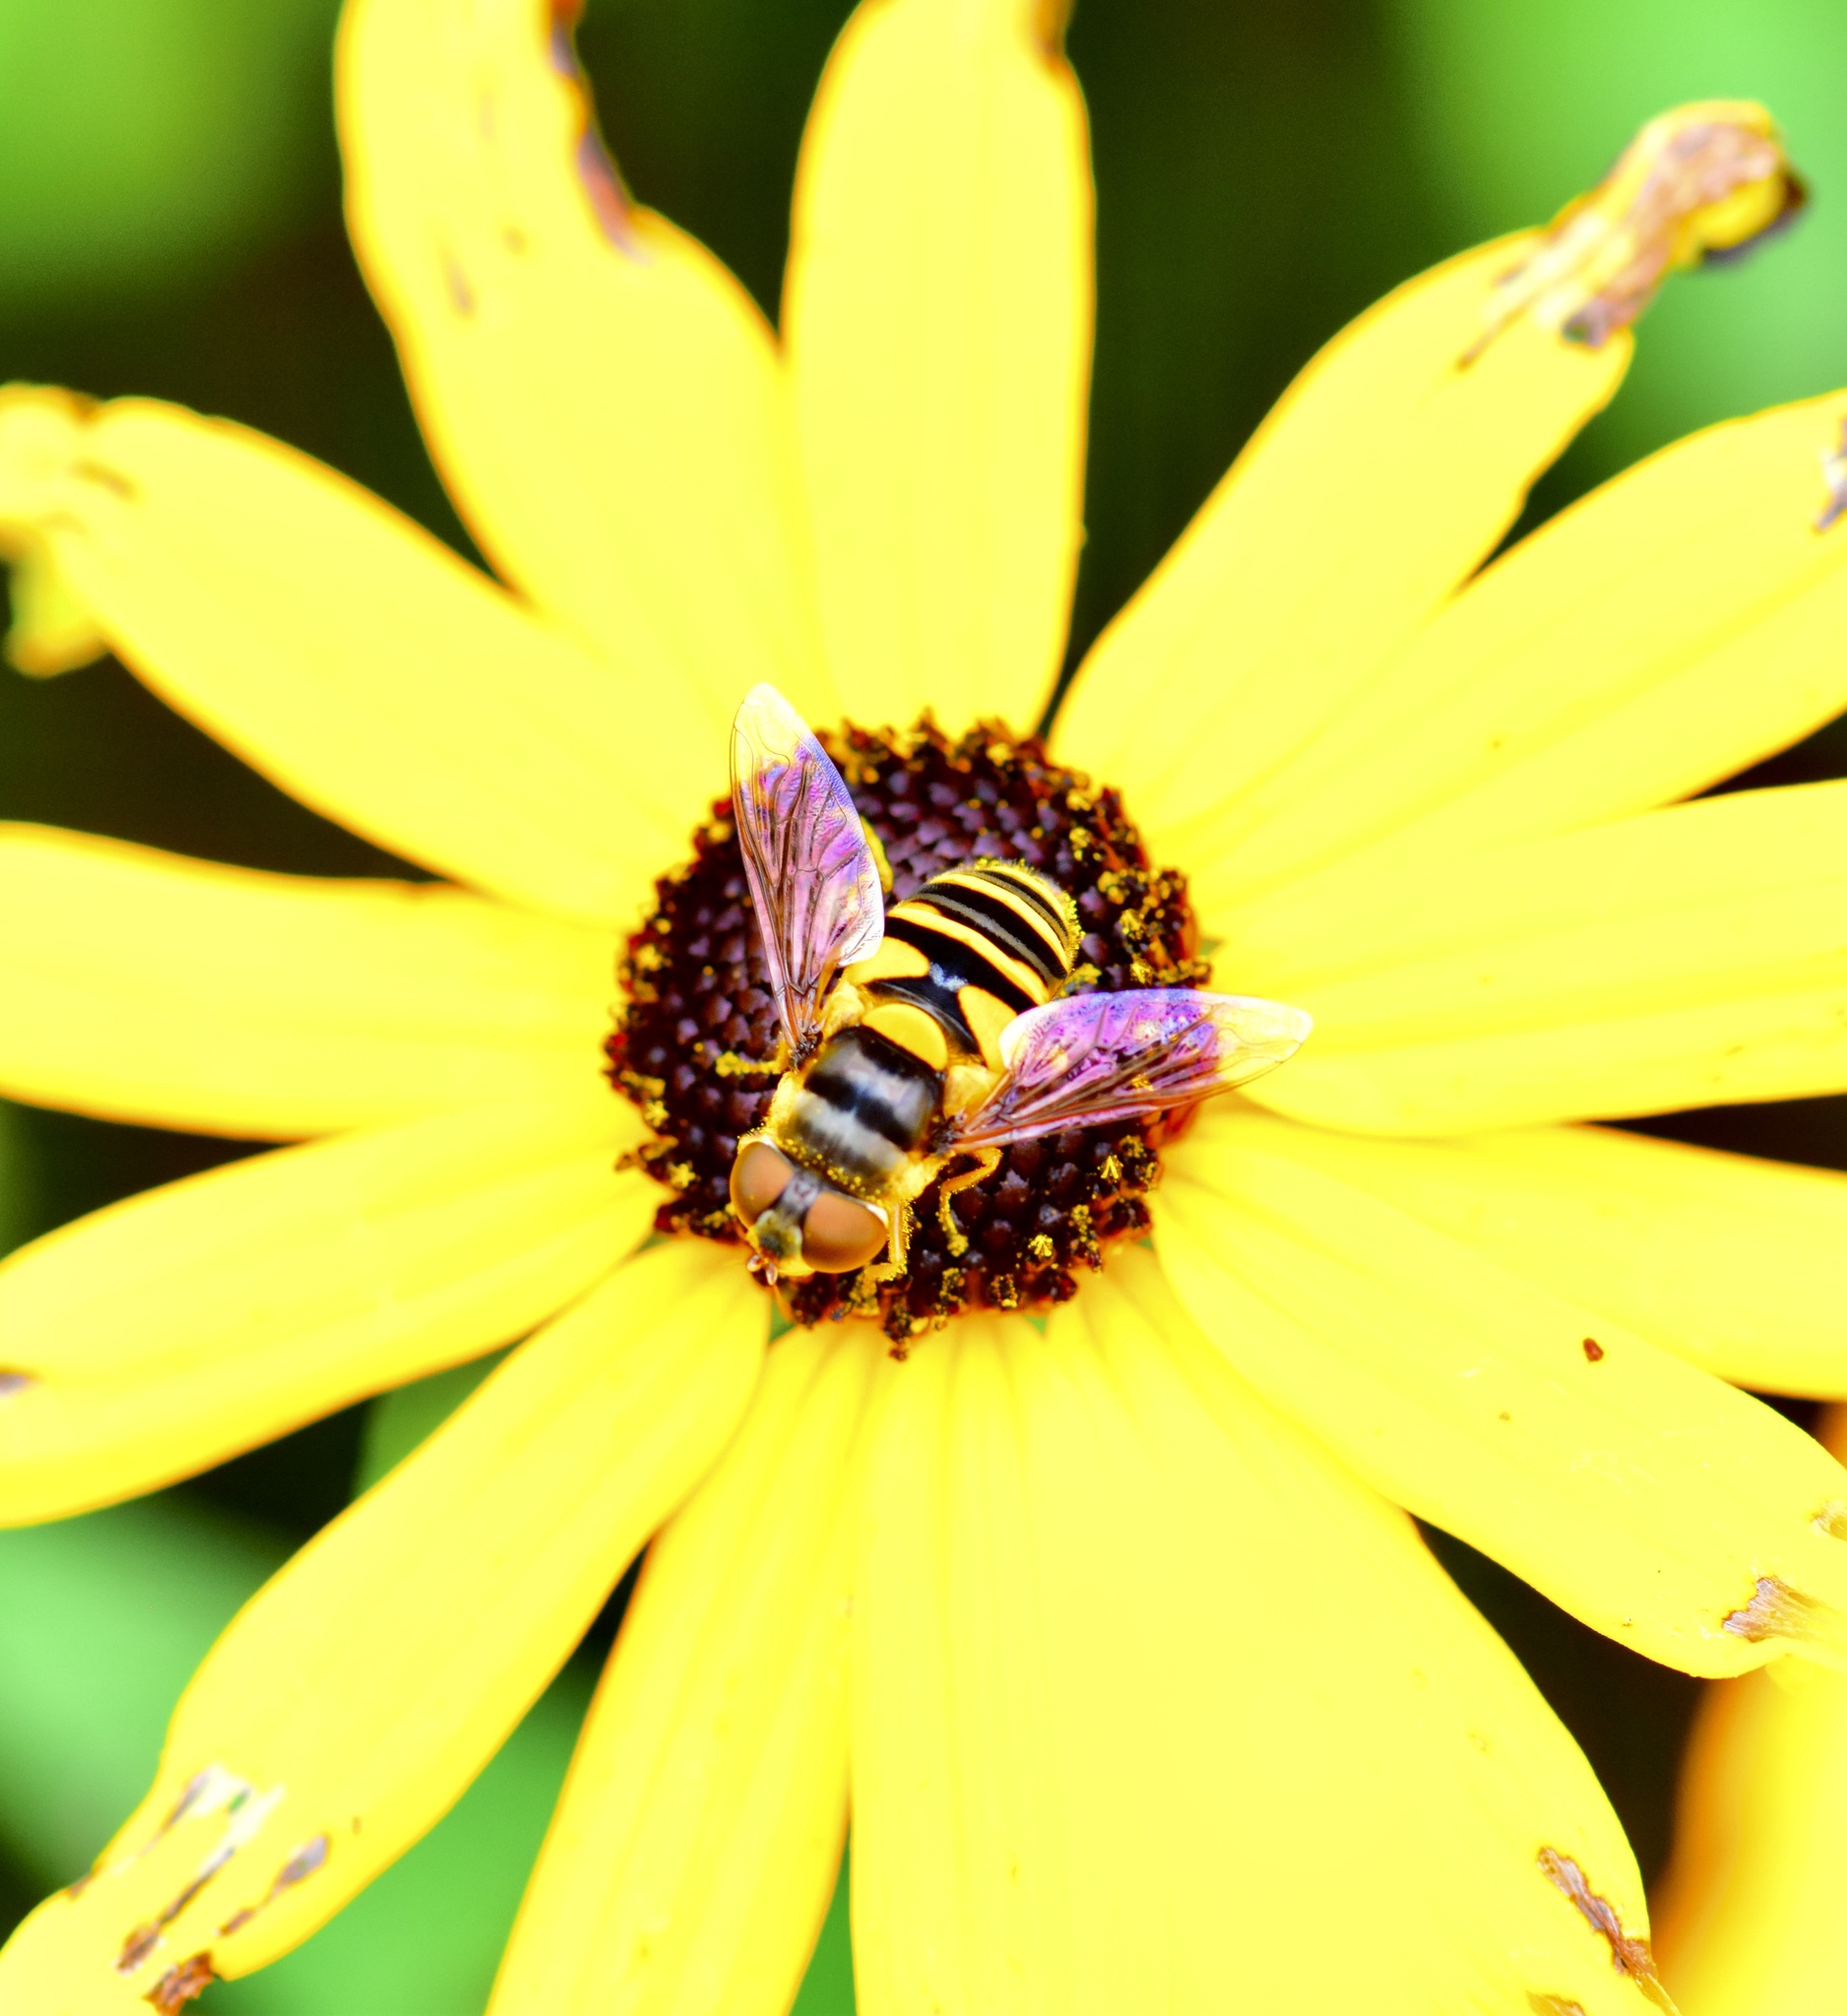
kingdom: Animalia
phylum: Arthropoda
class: Insecta
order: Diptera
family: Syrphidae
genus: Eristalis
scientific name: Eristalis transversa
